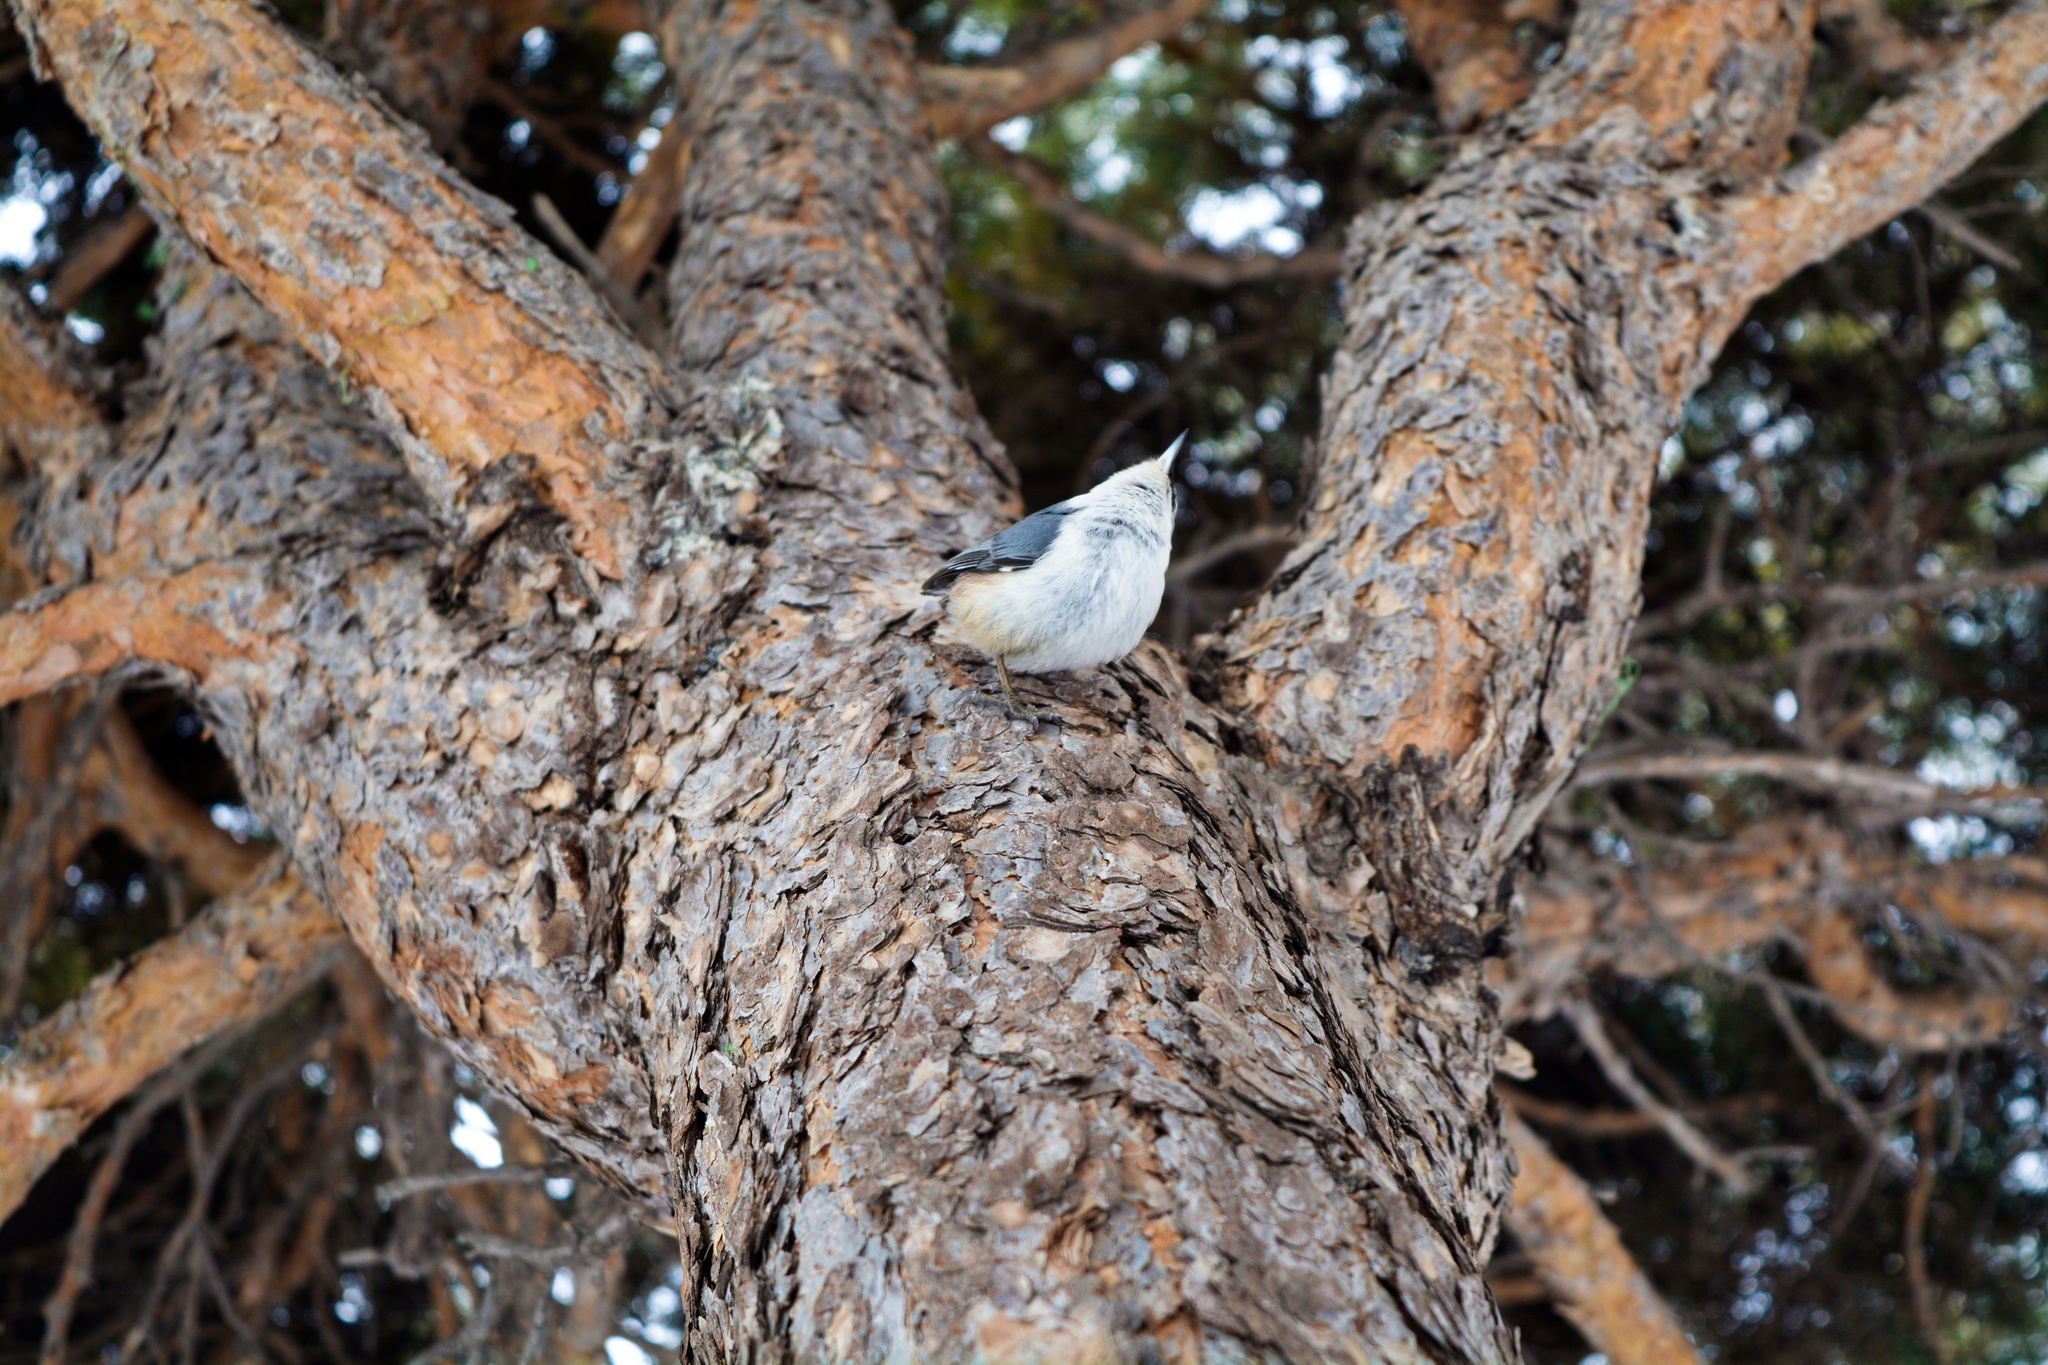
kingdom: Animalia
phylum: Chordata
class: Aves
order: Passeriformes
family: Sittidae
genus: Sitta
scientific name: Sitta europaea
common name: Eurasian nuthatch
